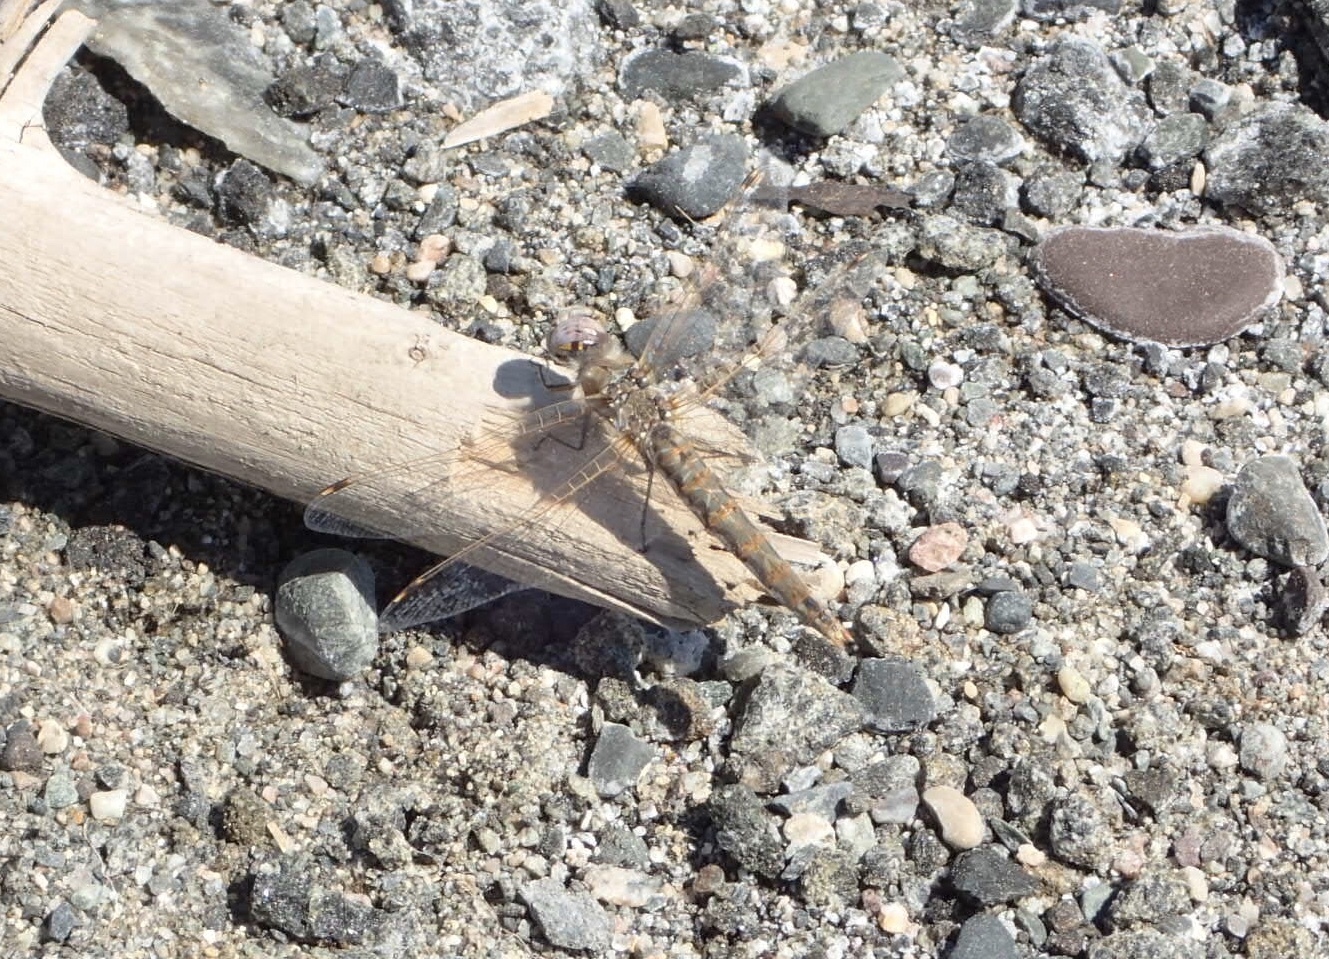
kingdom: Animalia
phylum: Arthropoda
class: Insecta
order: Odonata
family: Libellulidae
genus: Sympetrum
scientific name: Sympetrum corruptum
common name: Variegated meadowhawk
